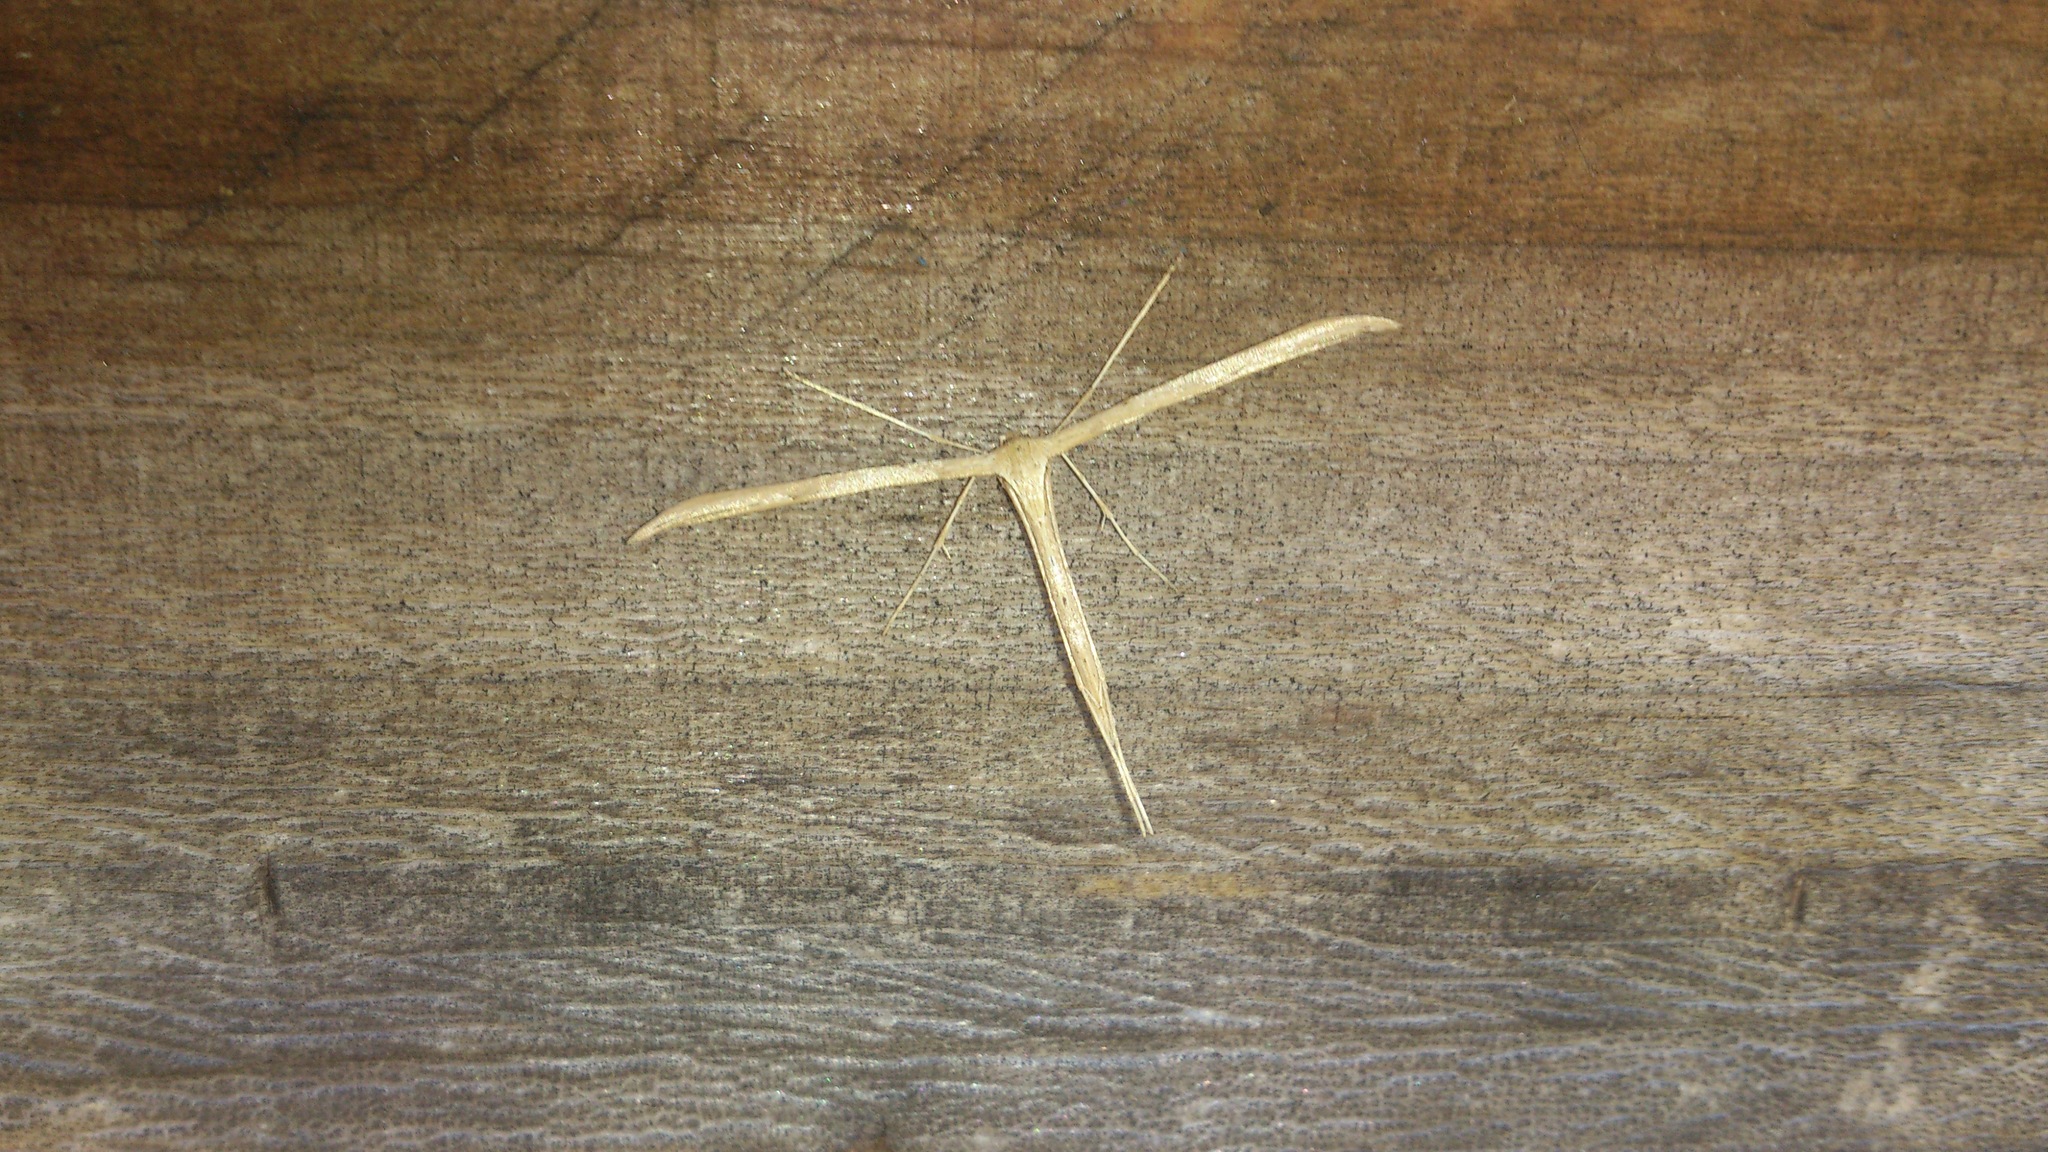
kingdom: Animalia
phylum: Arthropoda
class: Insecta
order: Lepidoptera
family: Pterophoridae
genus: Emmelina
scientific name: Emmelina monodactyla
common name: Common plume
